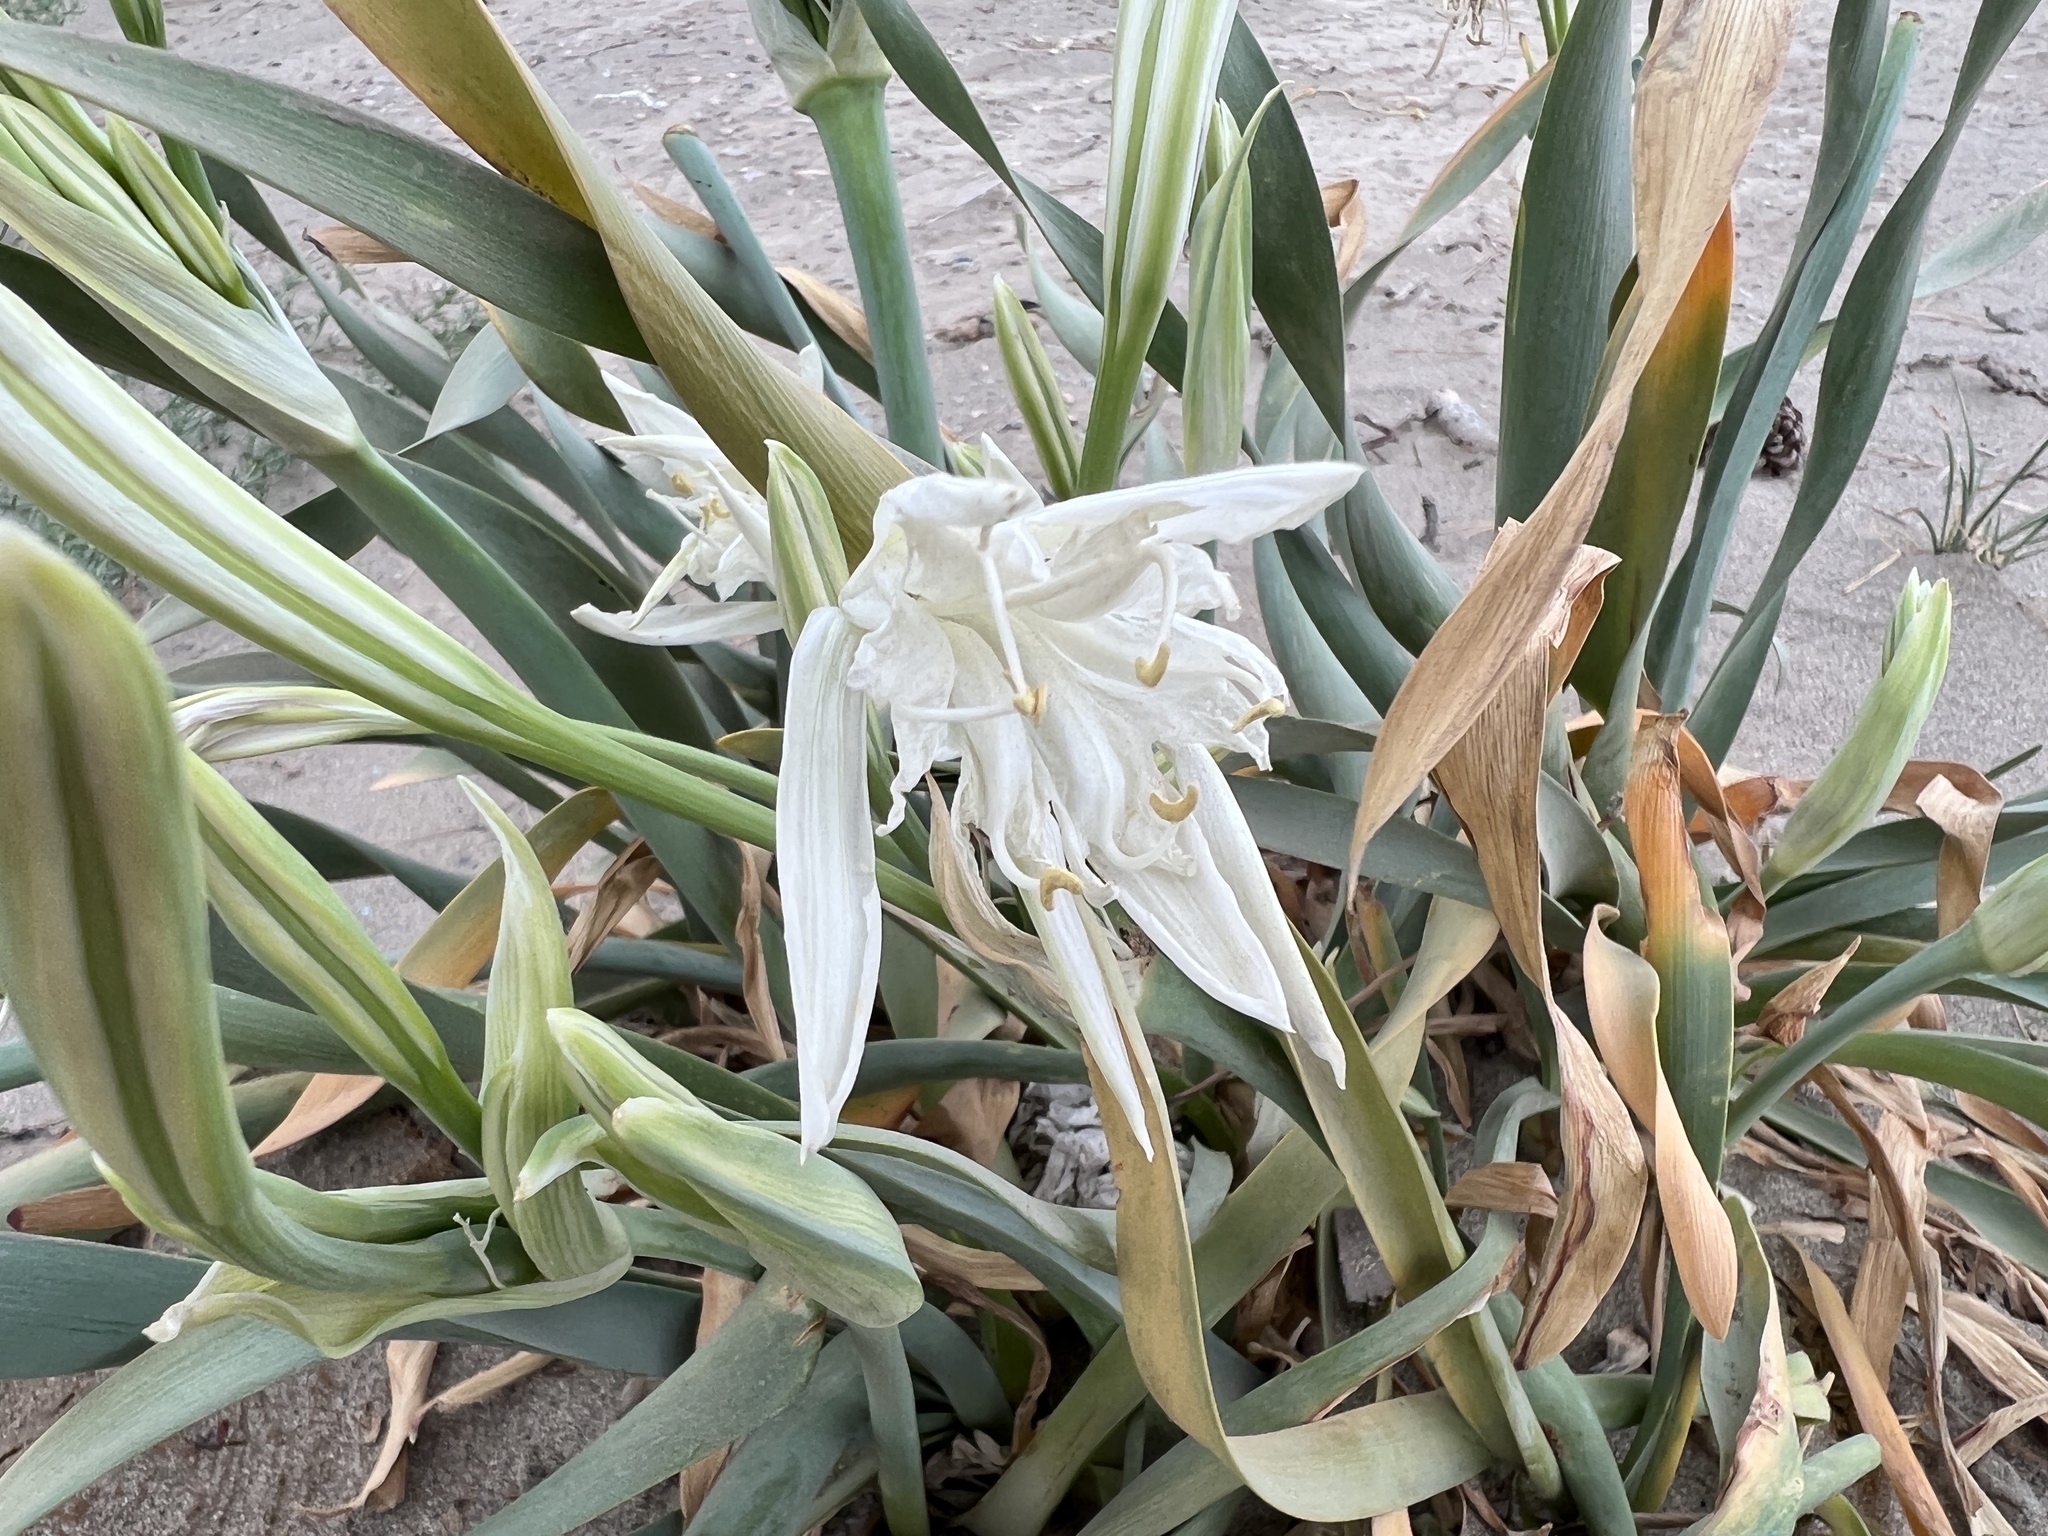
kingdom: Plantae
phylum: Tracheophyta
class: Liliopsida
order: Asparagales
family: Amaryllidaceae
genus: Pancratium
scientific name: Pancratium maritimum
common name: Sea-daffodil
